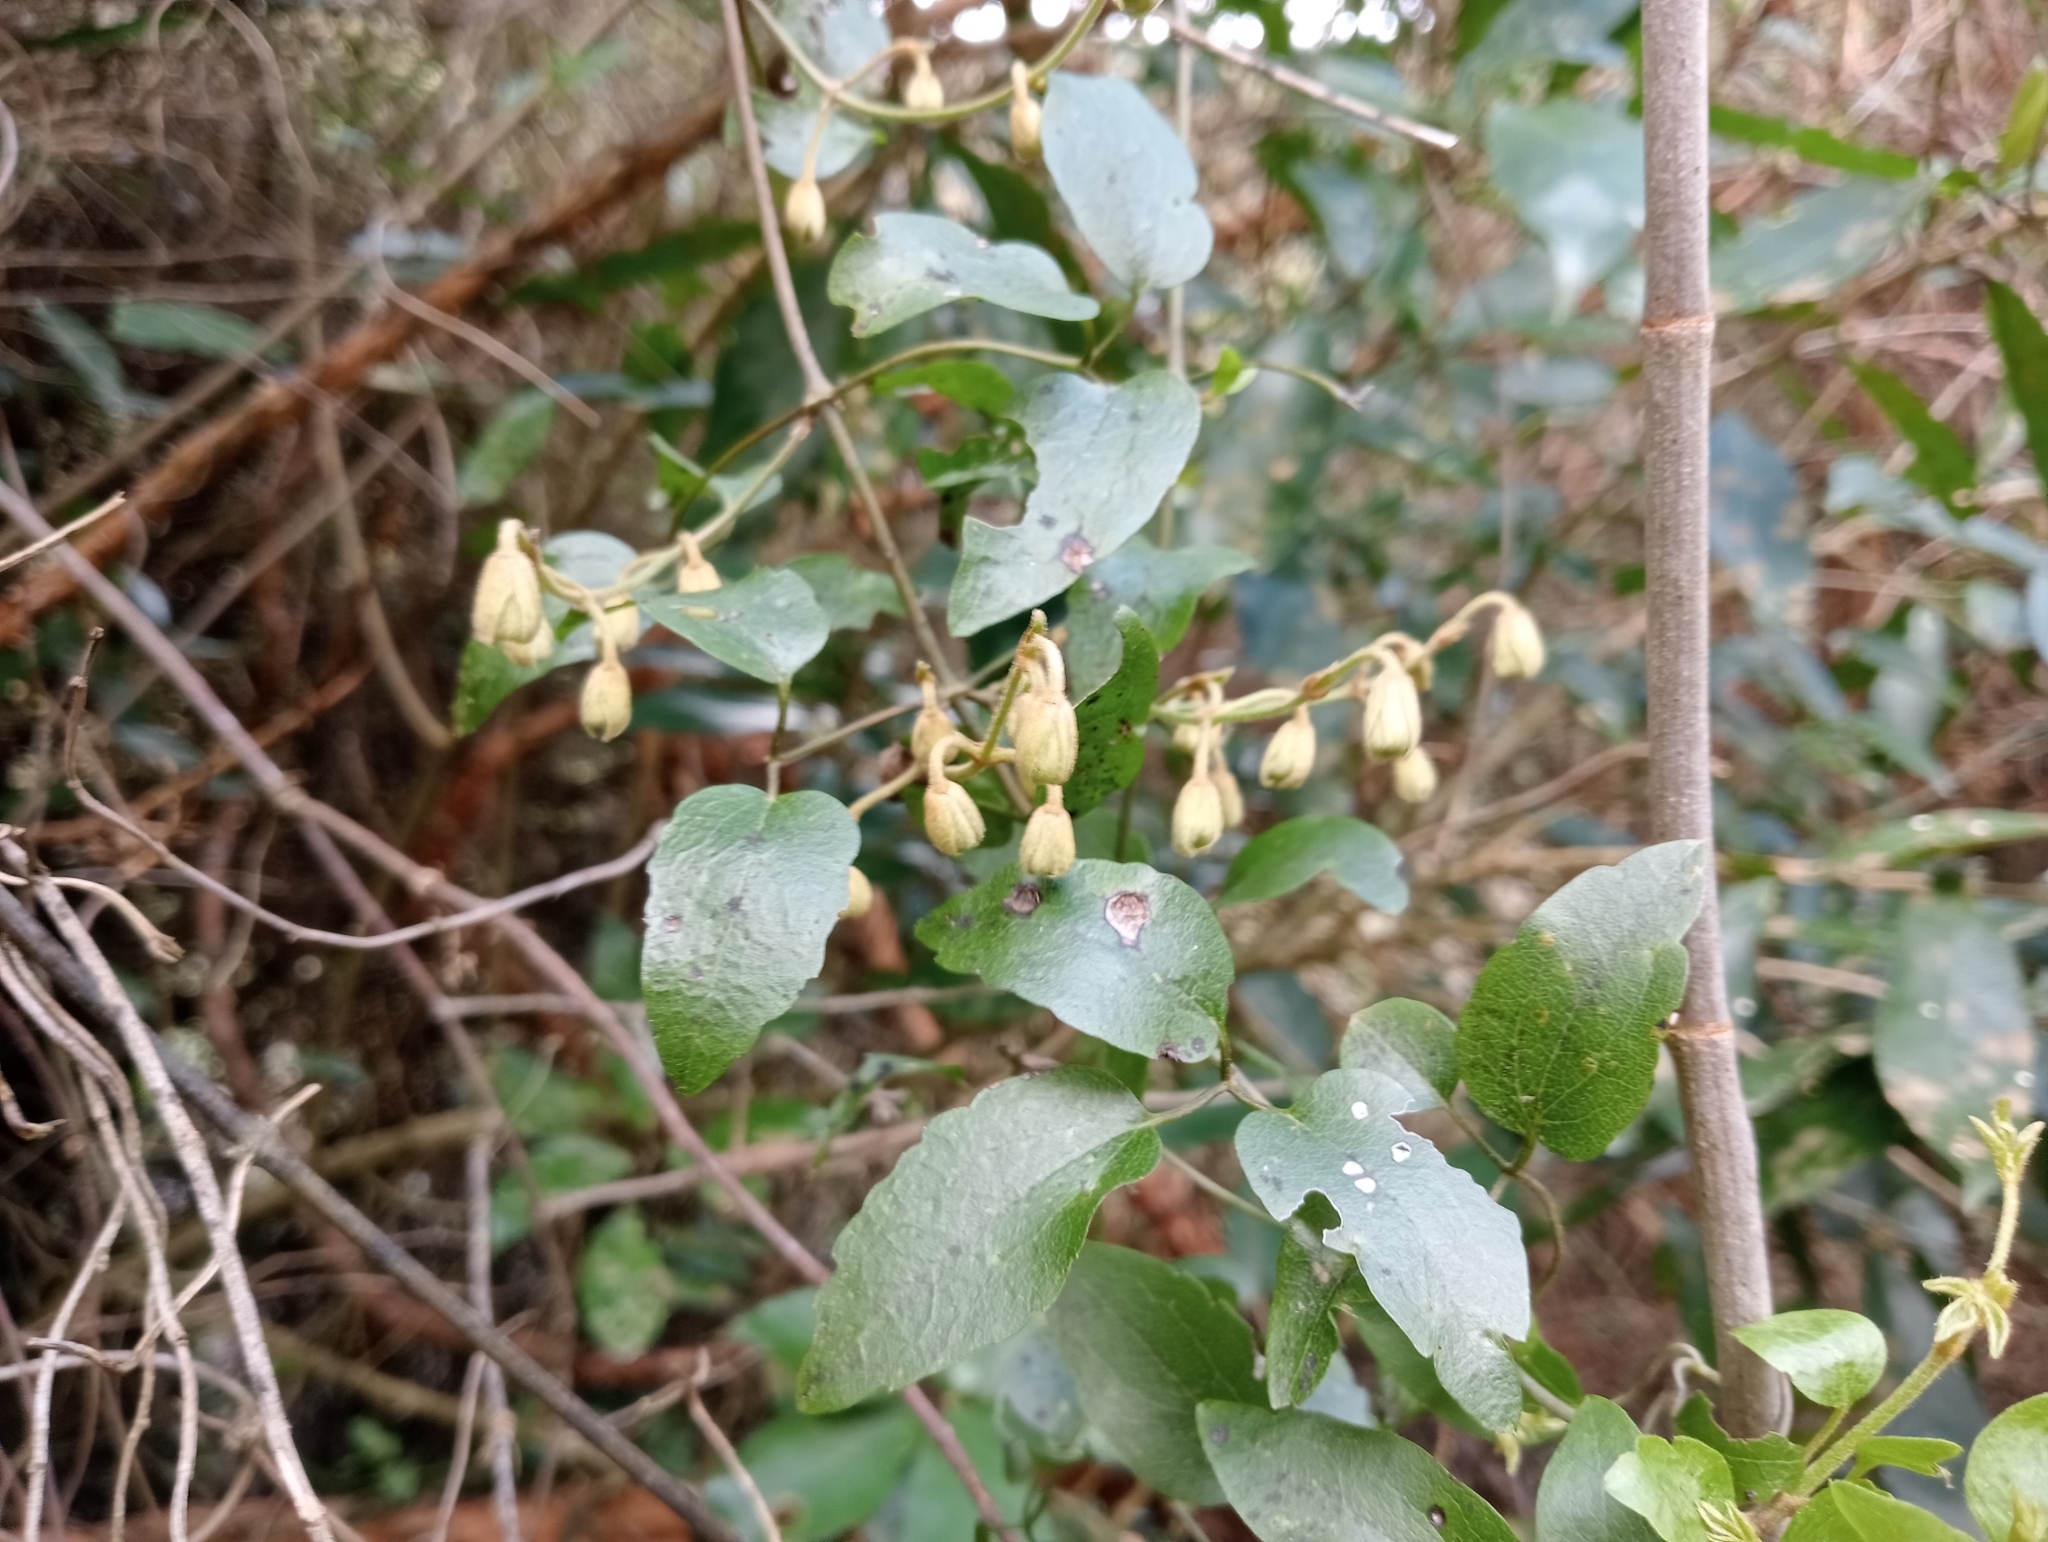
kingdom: Plantae
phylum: Tracheophyta
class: Magnoliopsida
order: Ranunculales
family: Ranunculaceae
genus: Clematis
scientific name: Clematis foetida
